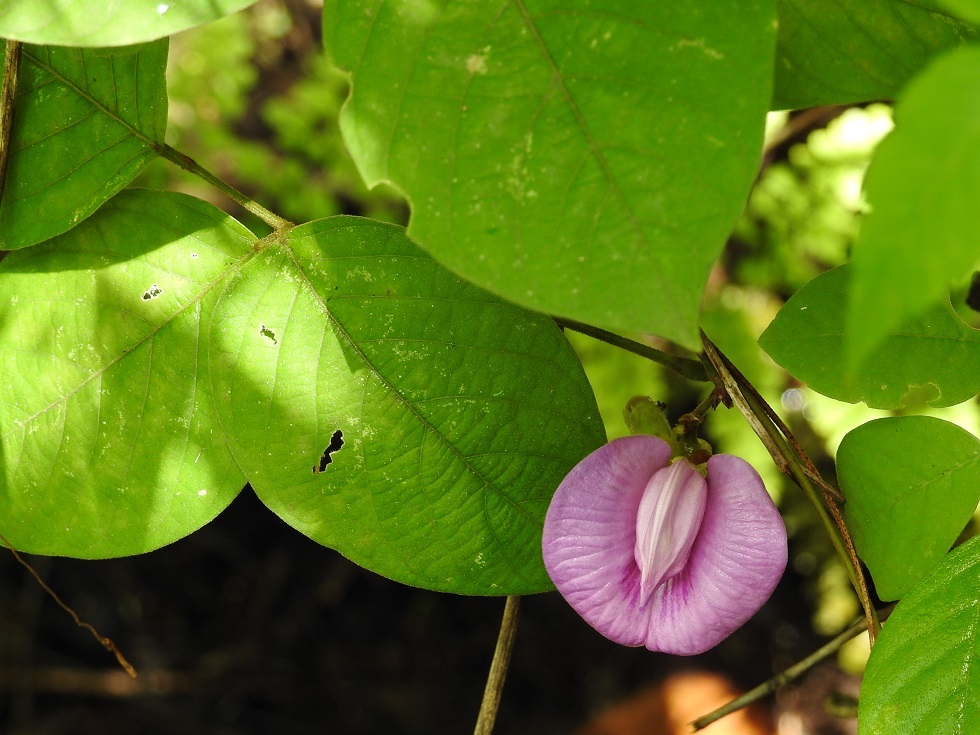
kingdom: Plantae
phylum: Tracheophyta
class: Magnoliopsida
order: Fabales
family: Fabaceae
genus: Centrosema
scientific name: Centrosema virginianum
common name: Butterfly-pea
